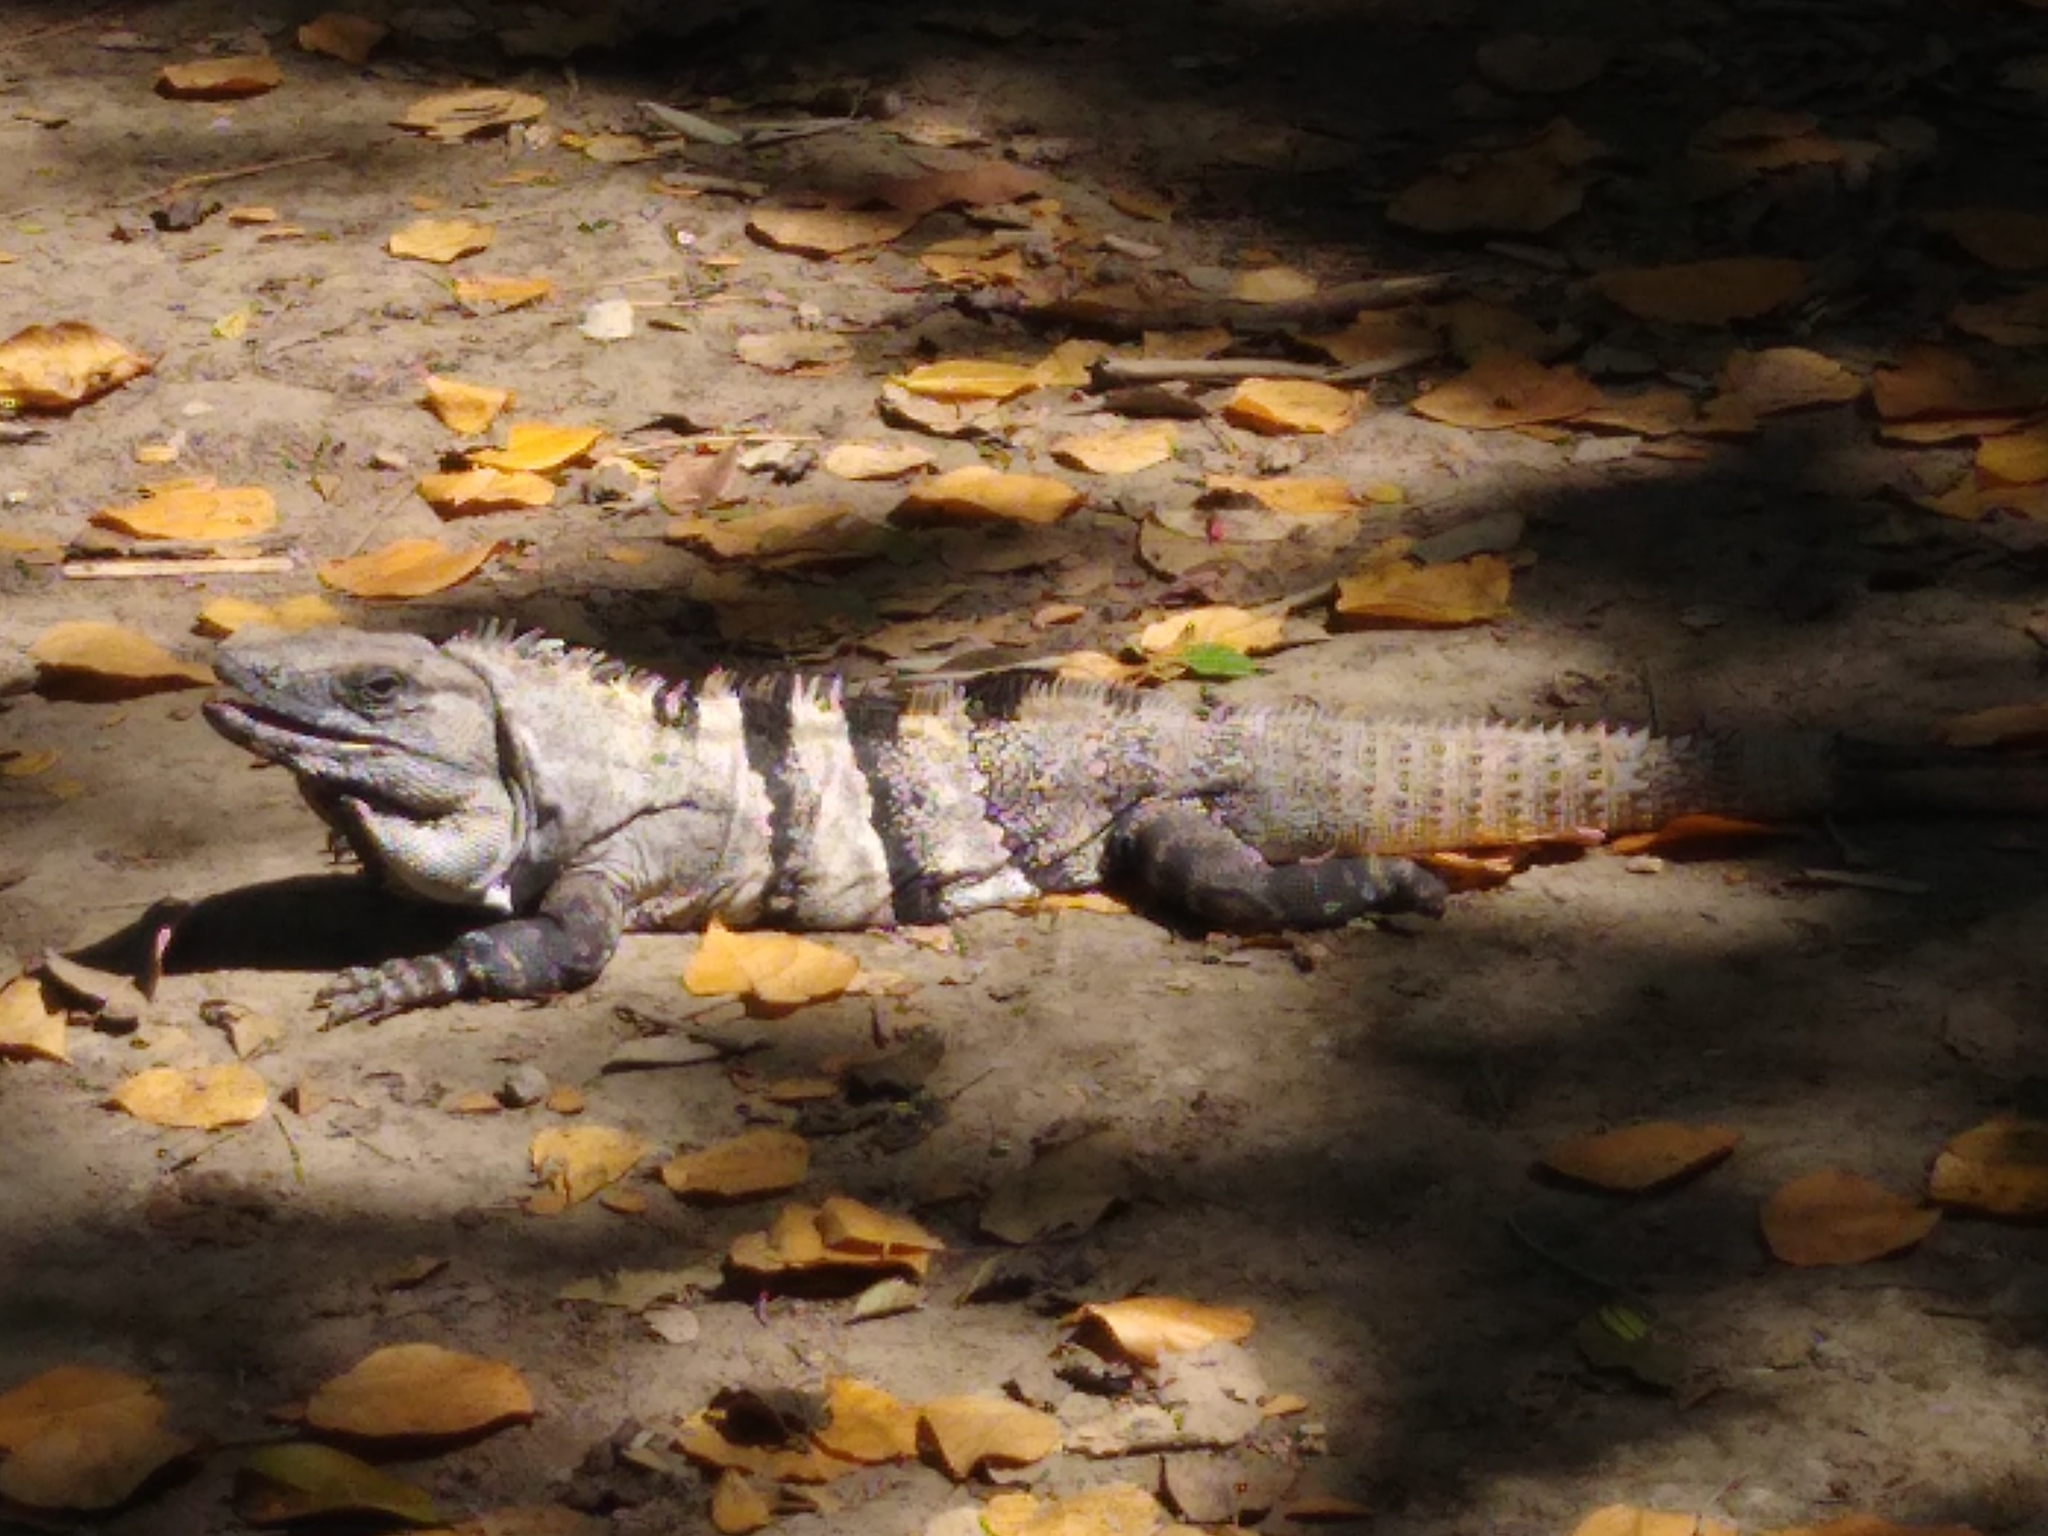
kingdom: Animalia
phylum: Chordata
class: Squamata
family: Iguanidae
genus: Ctenosaura
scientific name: Ctenosaura similis
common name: Black spiny-tailed iguana
